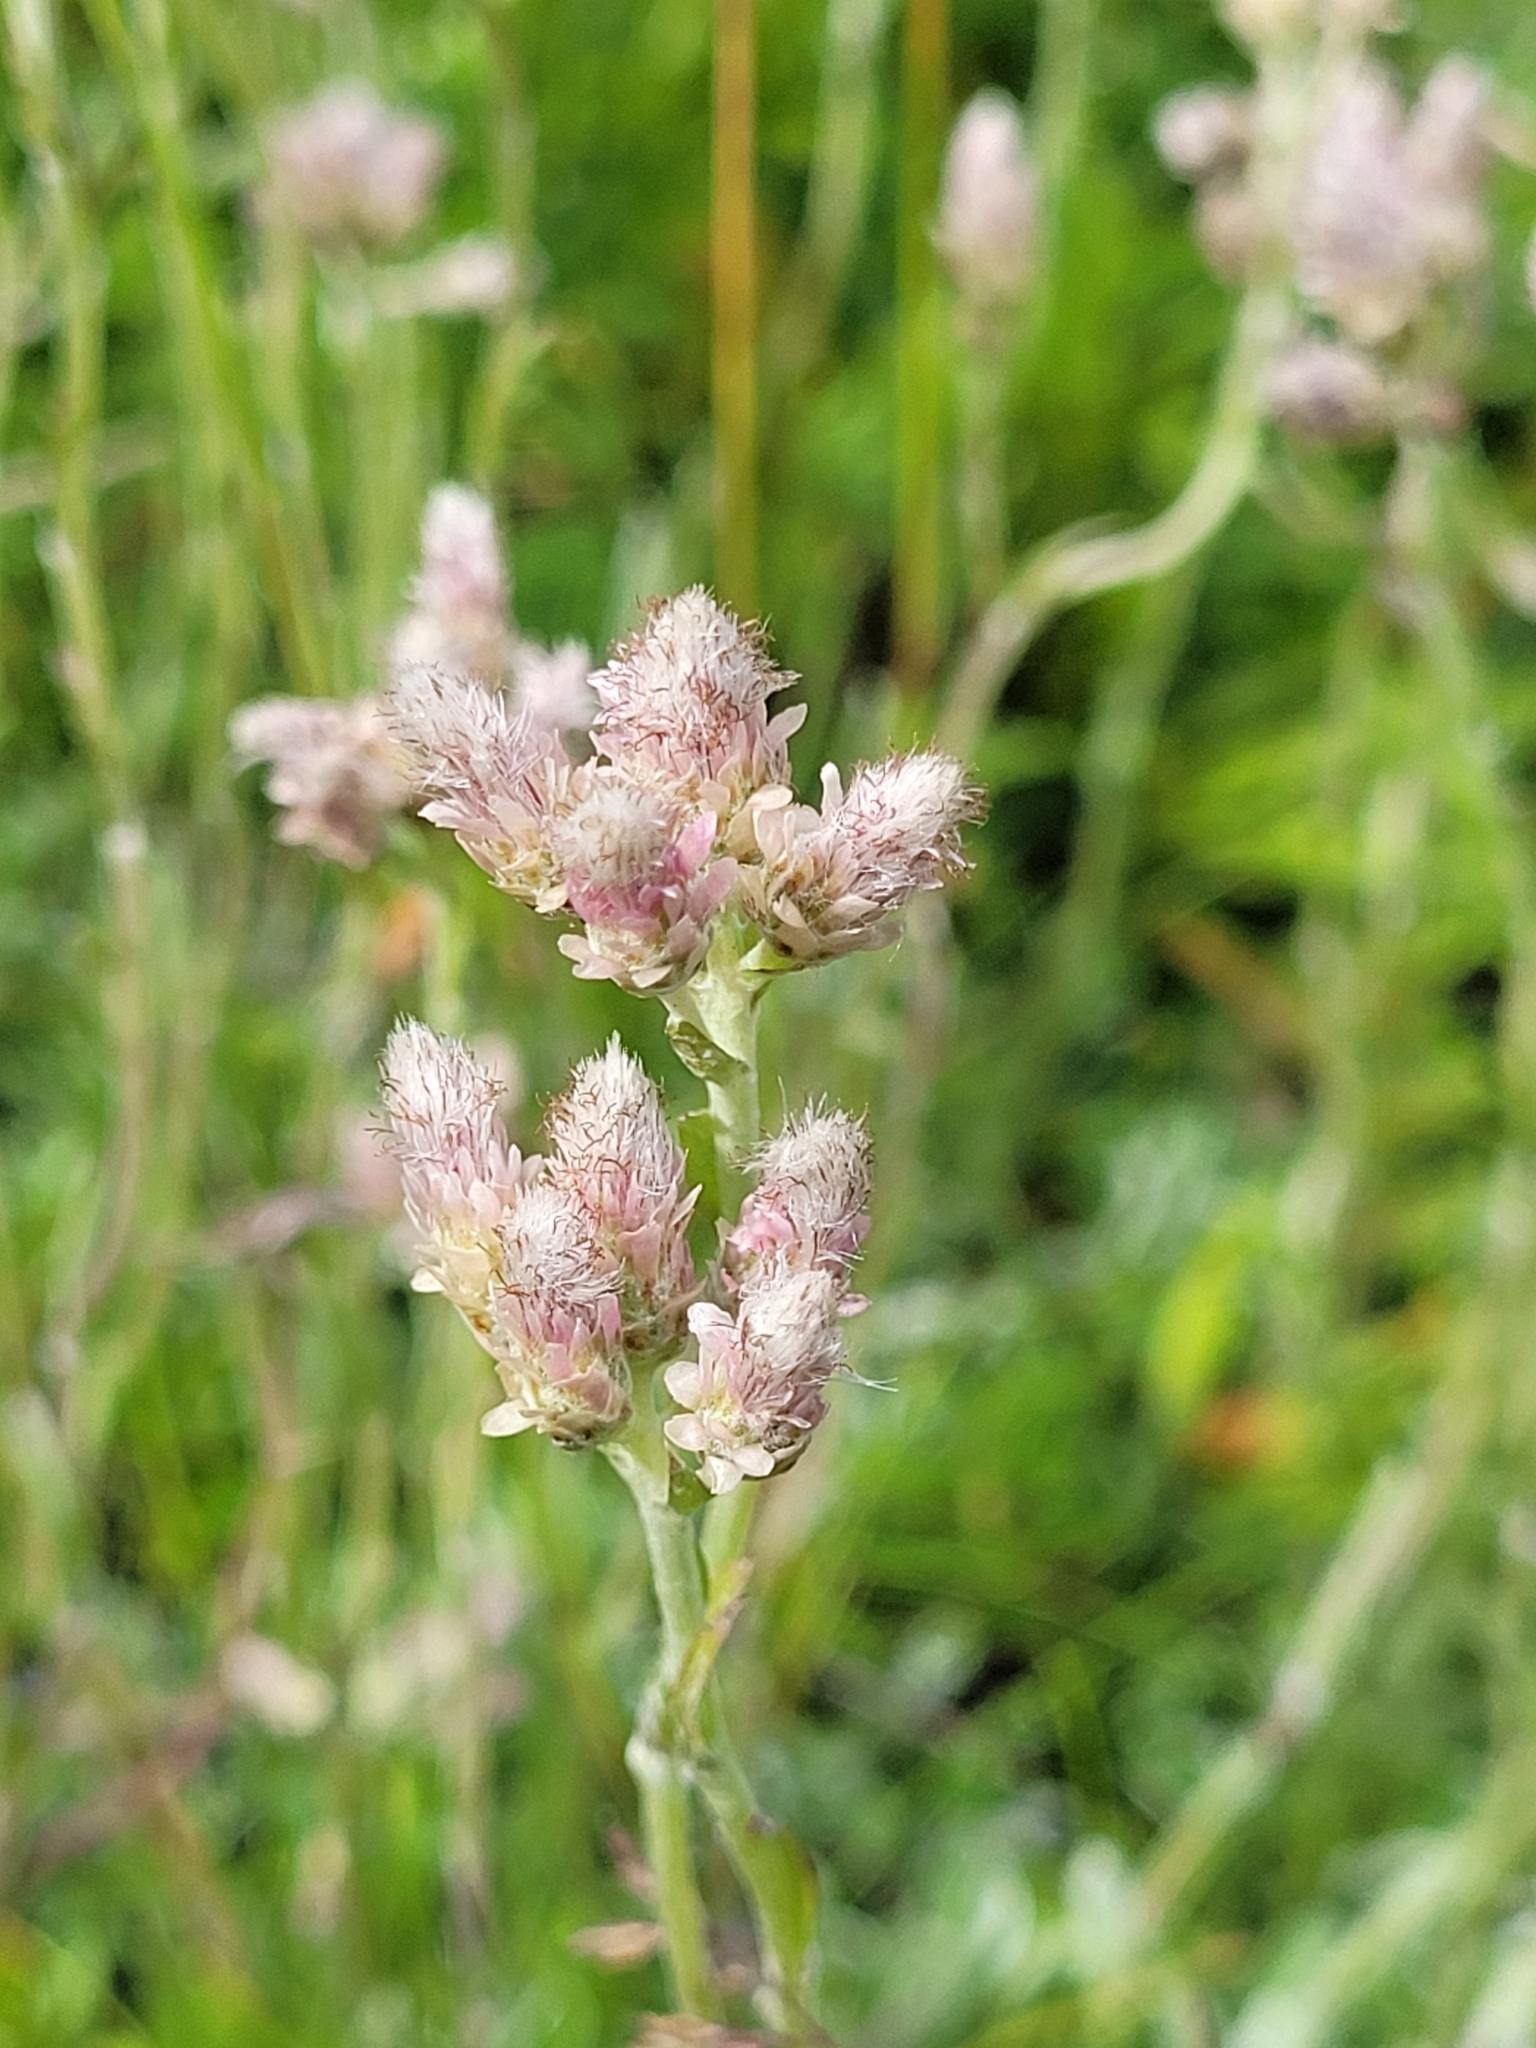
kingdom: Plantae
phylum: Tracheophyta
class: Magnoliopsida
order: Asterales
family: Asteraceae
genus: Antennaria
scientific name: Antennaria dioica
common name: Mountain everlasting
